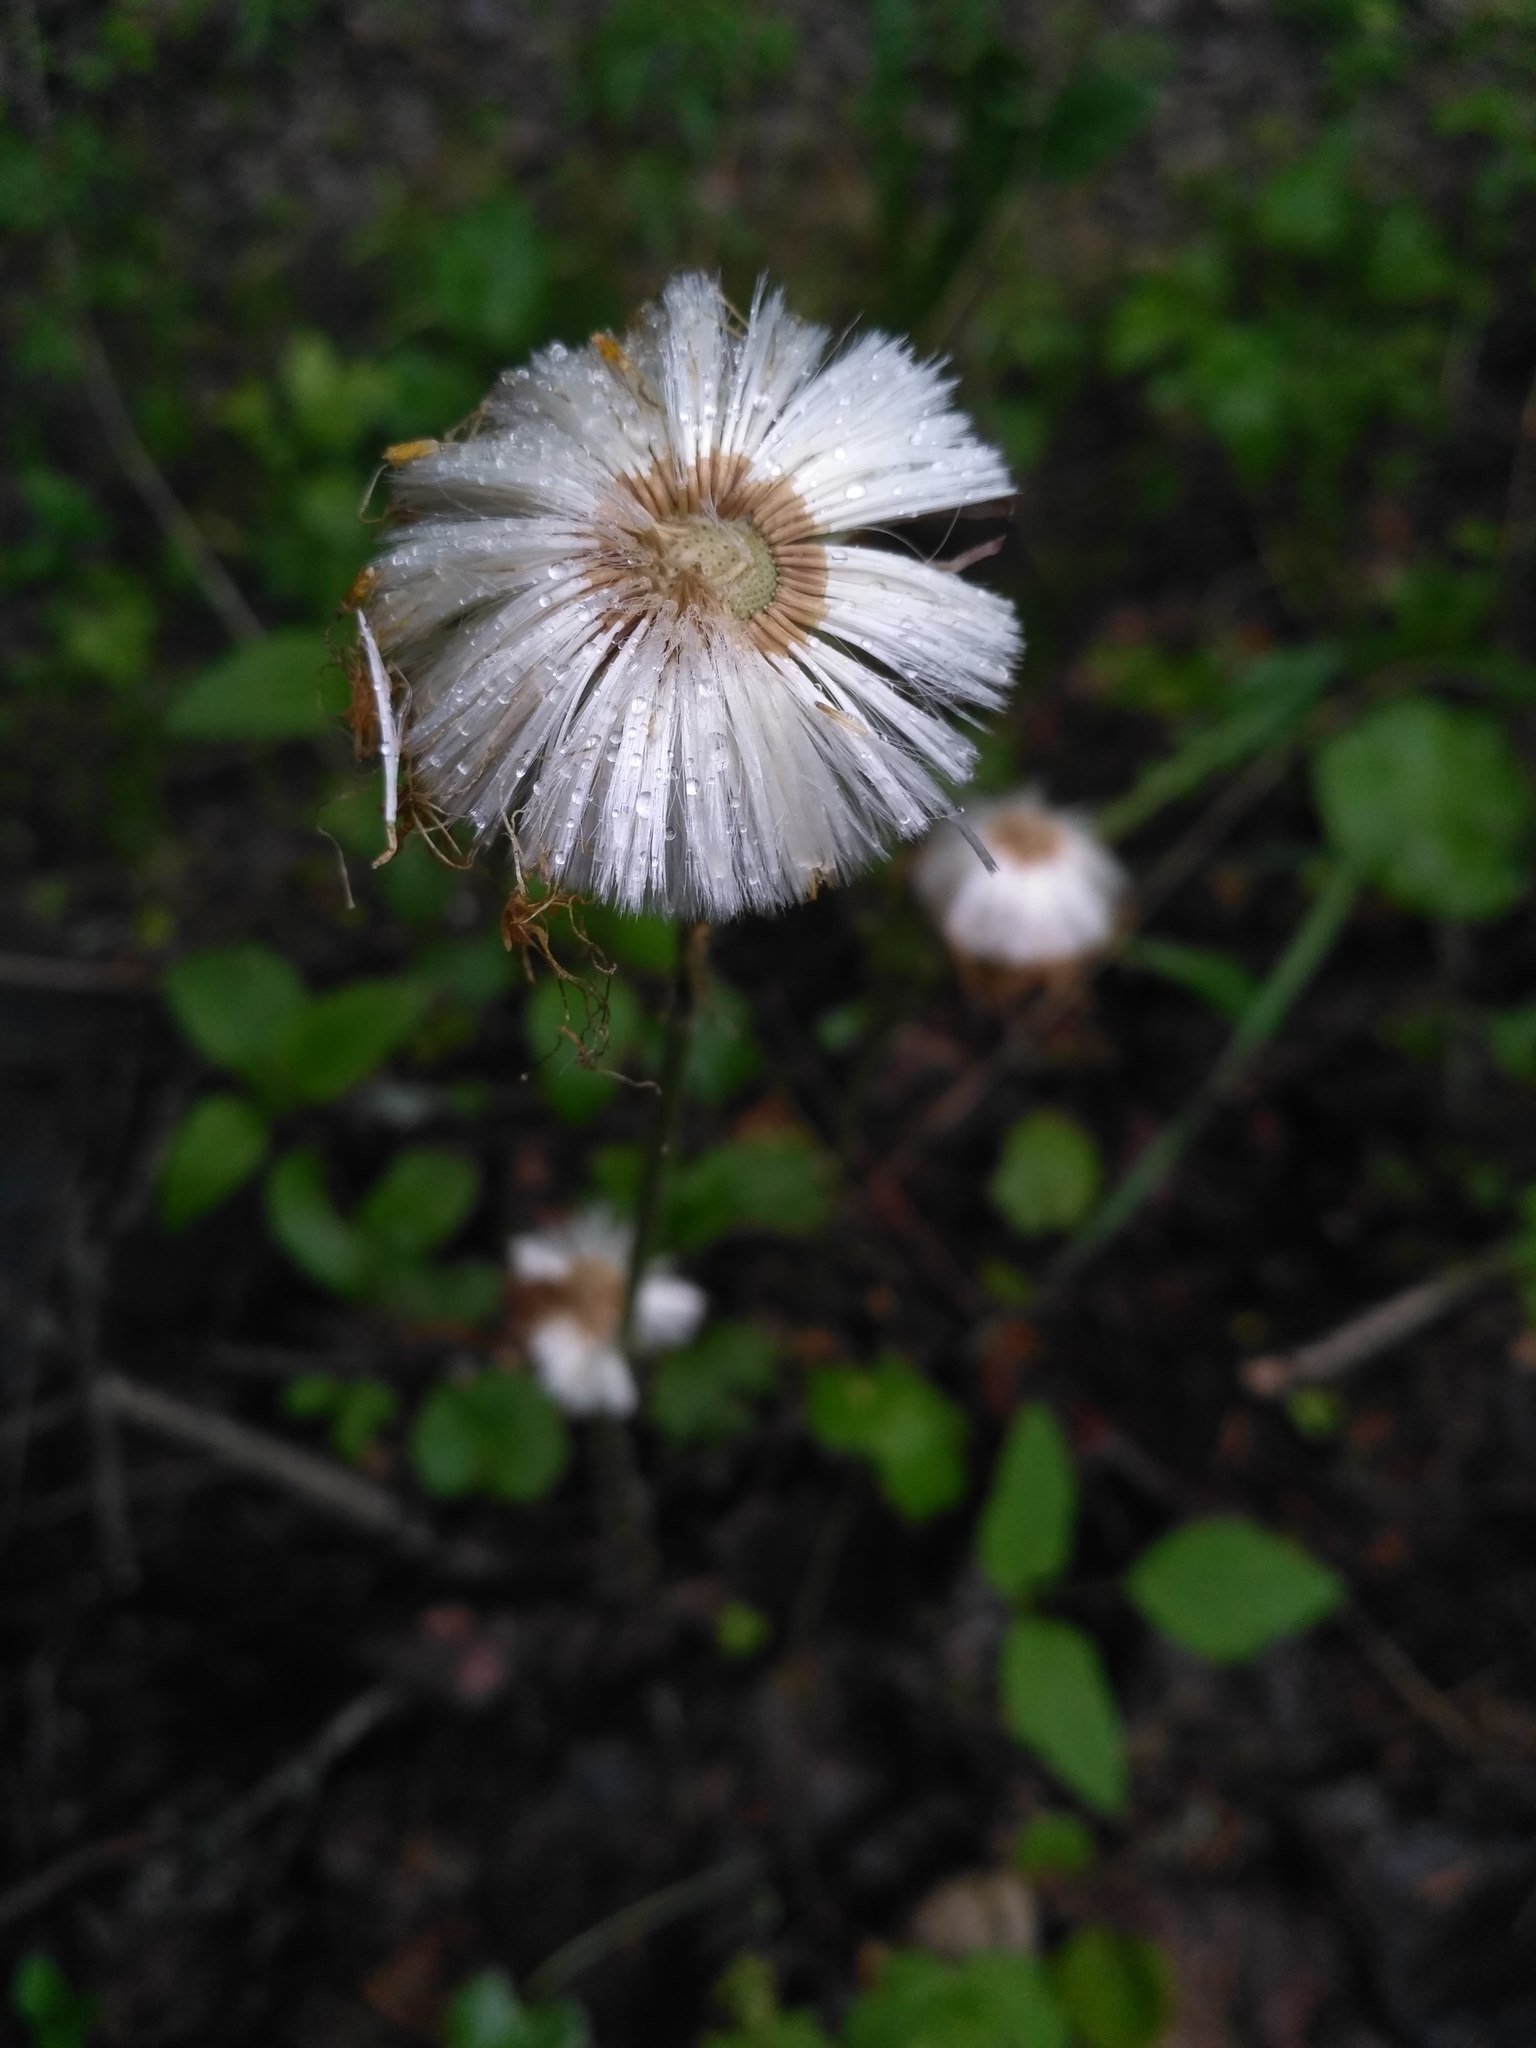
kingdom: Plantae
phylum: Tracheophyta
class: Magnoliopsida
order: Asterales
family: Asteraceae
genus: Tussilago
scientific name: Tussilago farfara
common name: Coltsfoot
